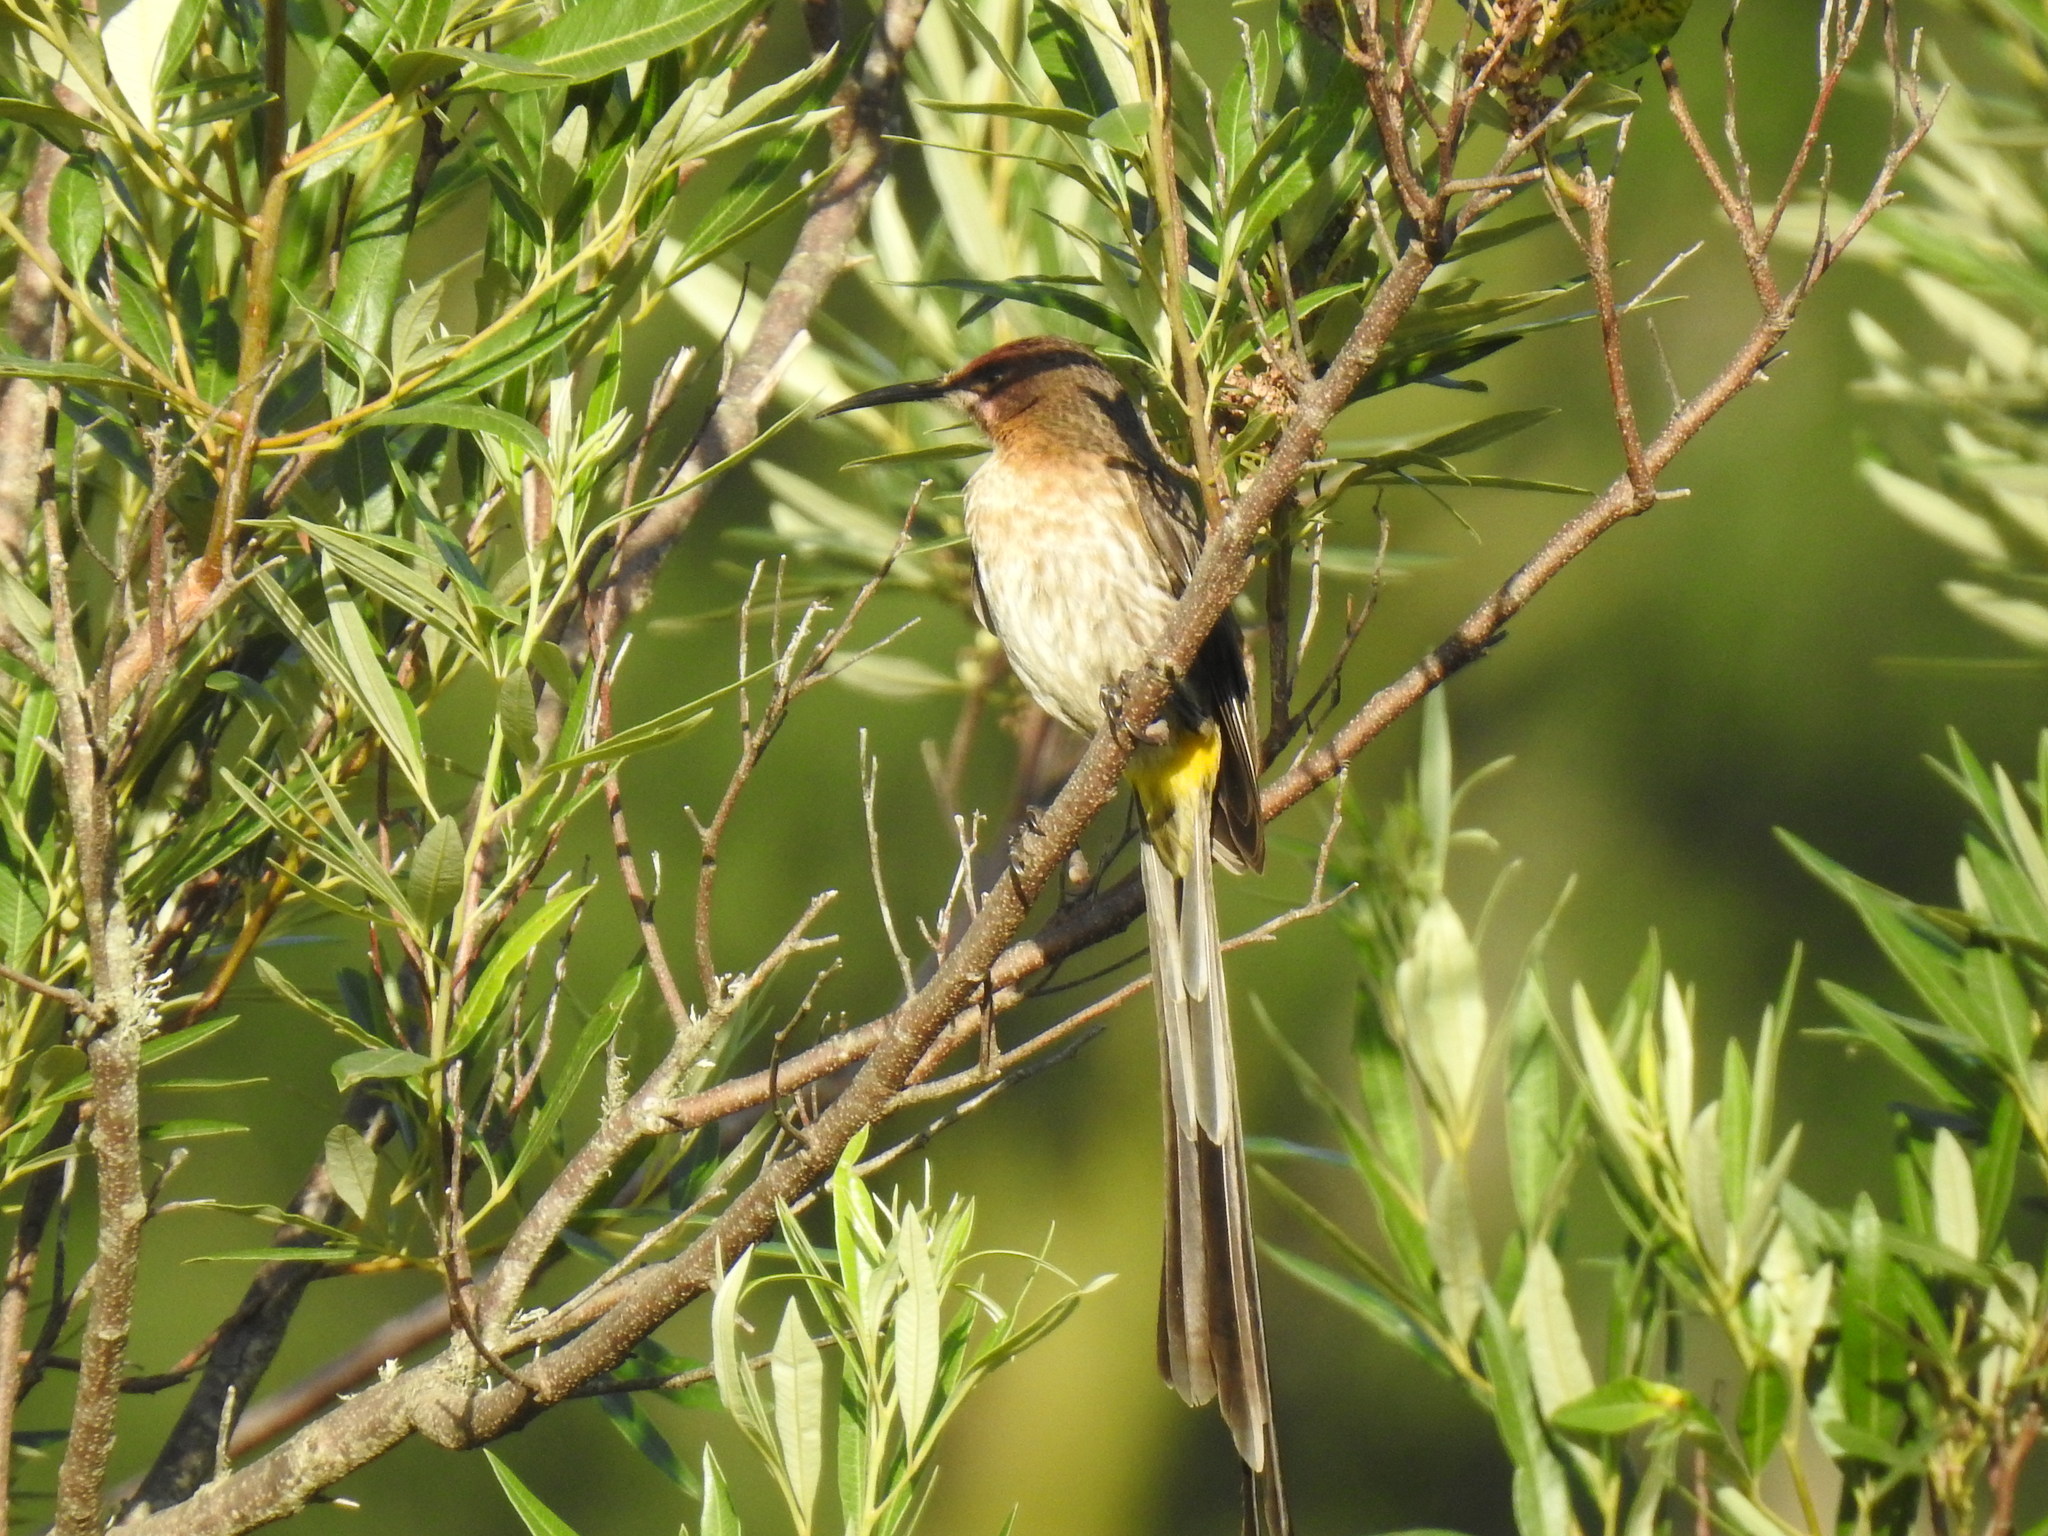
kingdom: Animalia
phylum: Chordata
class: Aves
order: Passeriformes
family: Promeropidae
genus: Promerops
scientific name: Promerops cafer
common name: Cape sugarbird
